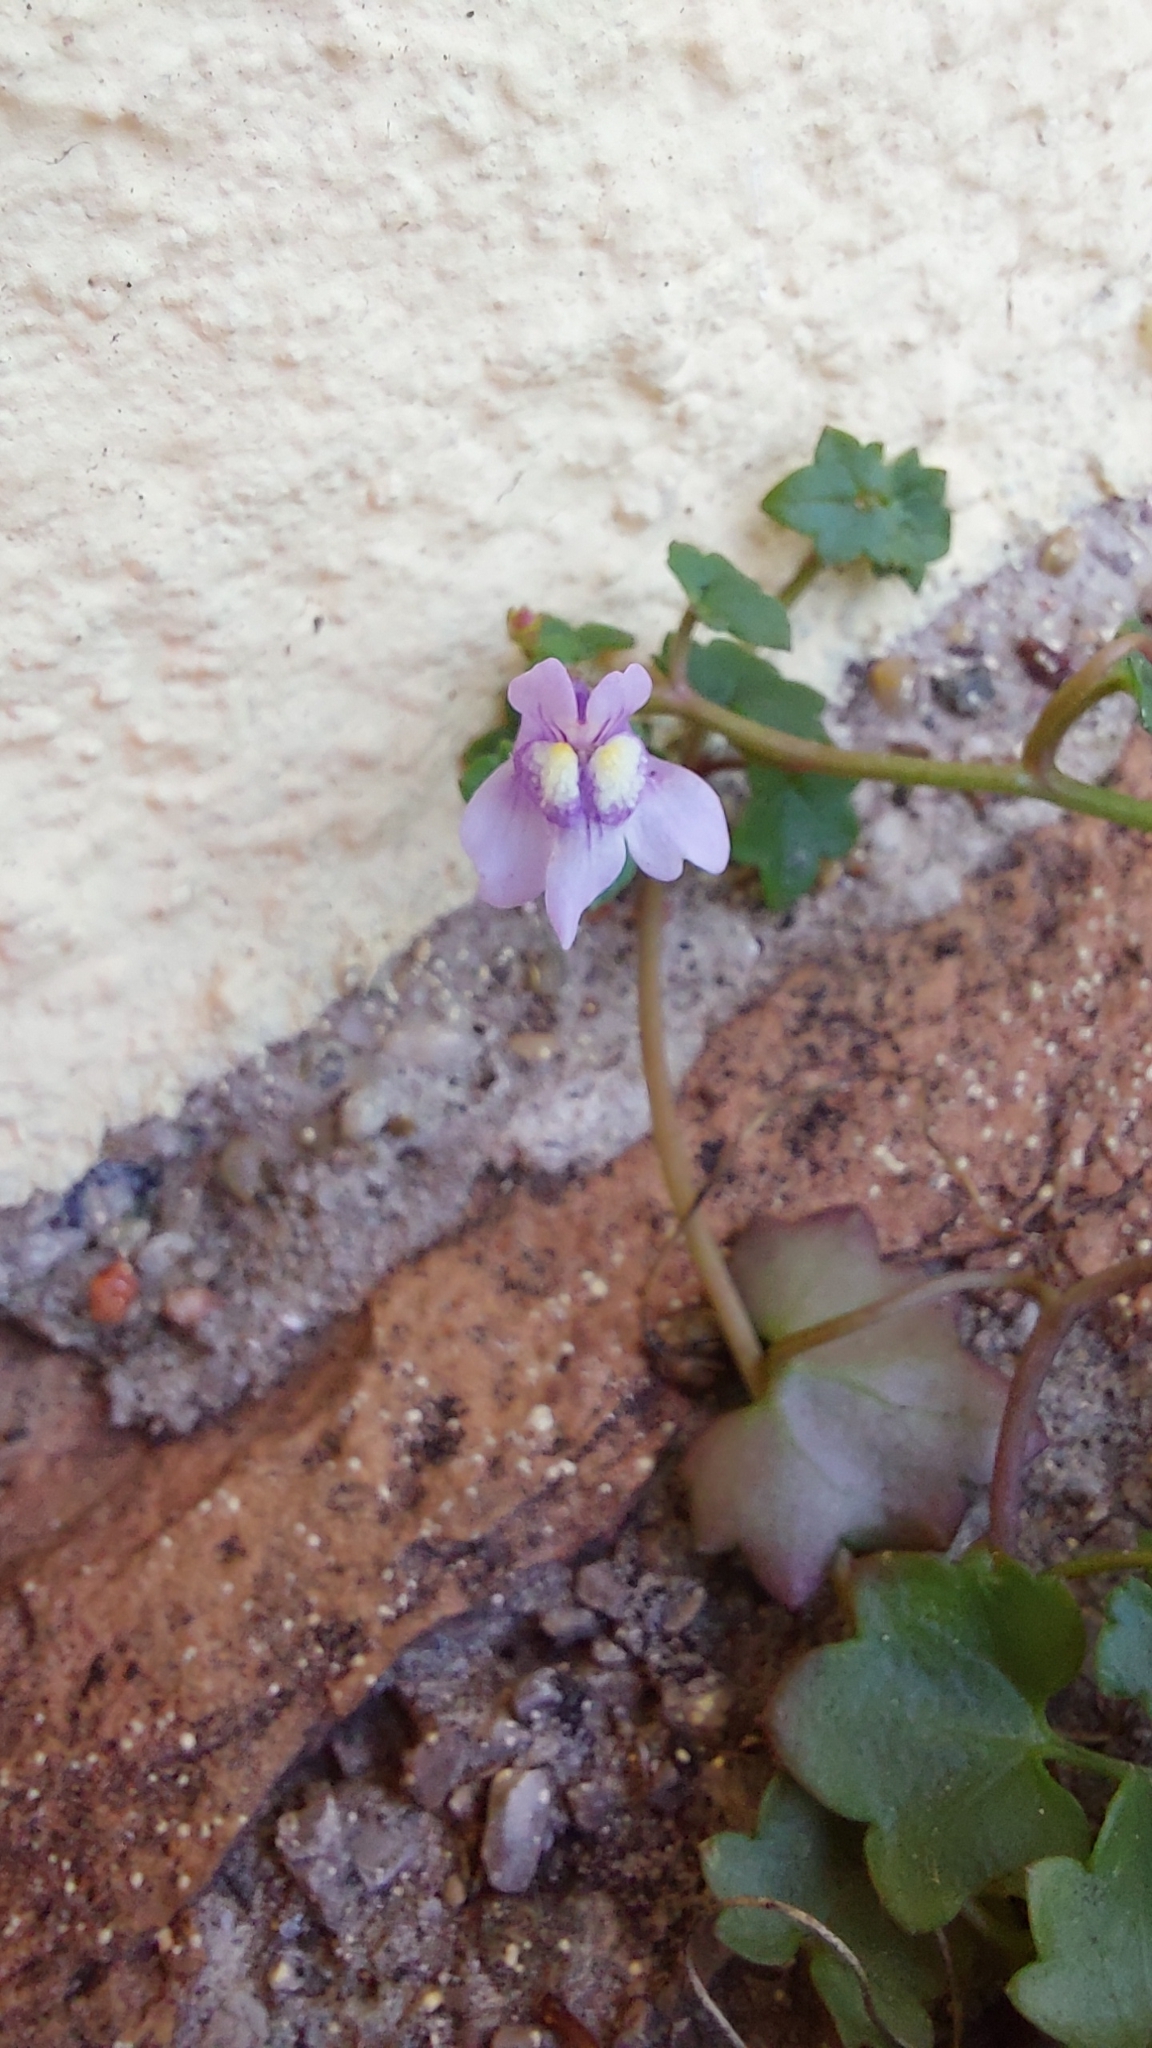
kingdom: Plantae
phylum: Tracheophyta
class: Magnoliopsida
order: Lamiales
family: Plantaginaceae
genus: Cymbalaria
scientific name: Cymbalaria muralis
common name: Ivy-leaved toadflax
